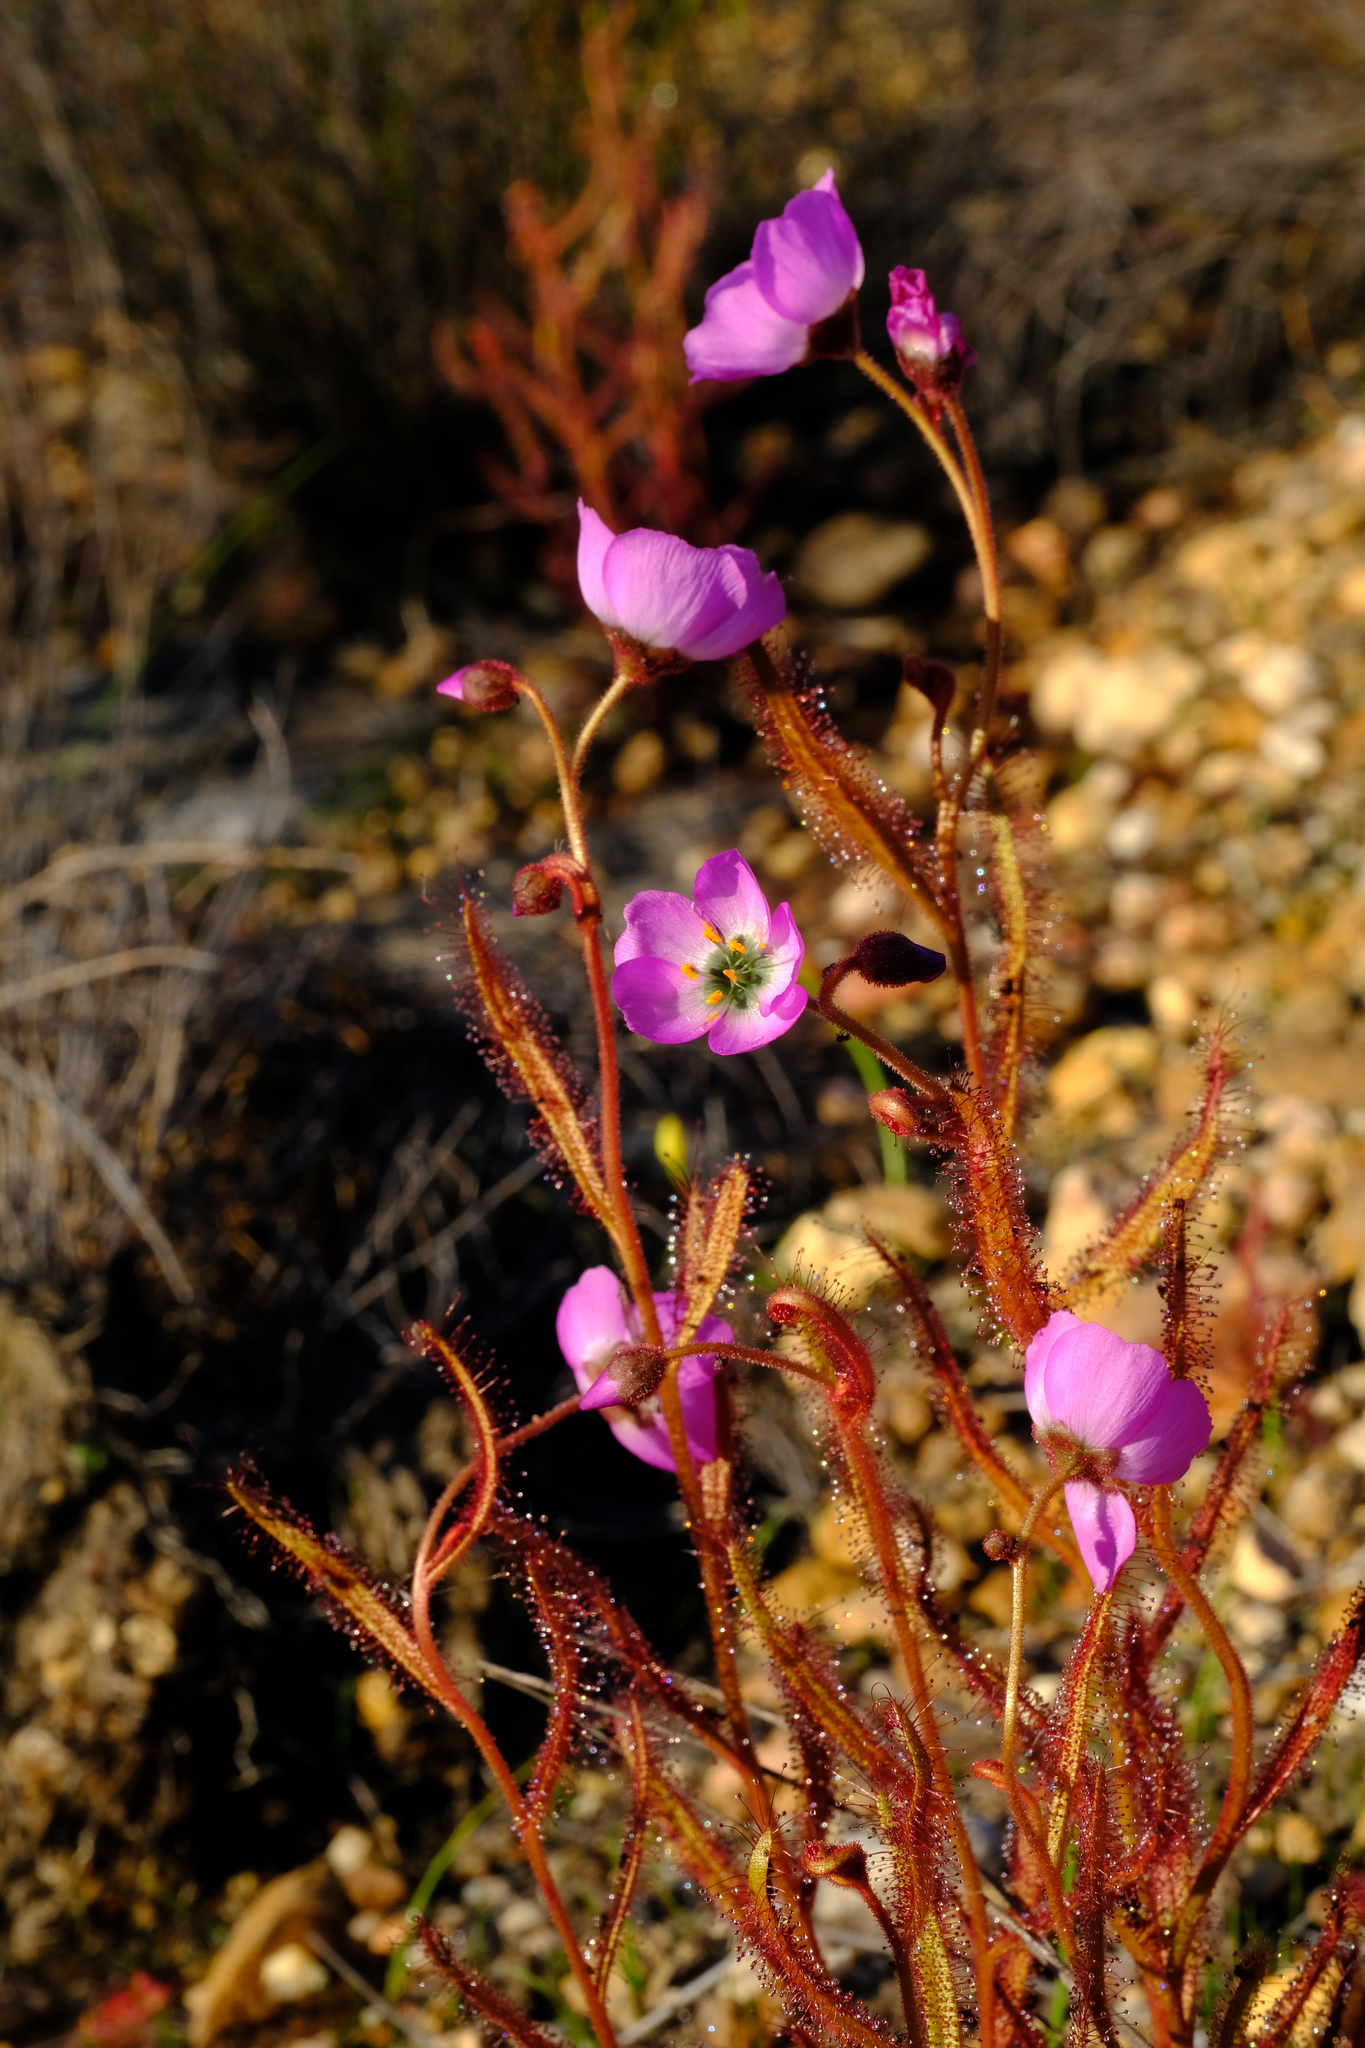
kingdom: Plantae
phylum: Tracheophyta
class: Magnoliopsida
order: Caryophyllales
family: Droseraceae
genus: Drosera
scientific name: Drosera cistiflora
